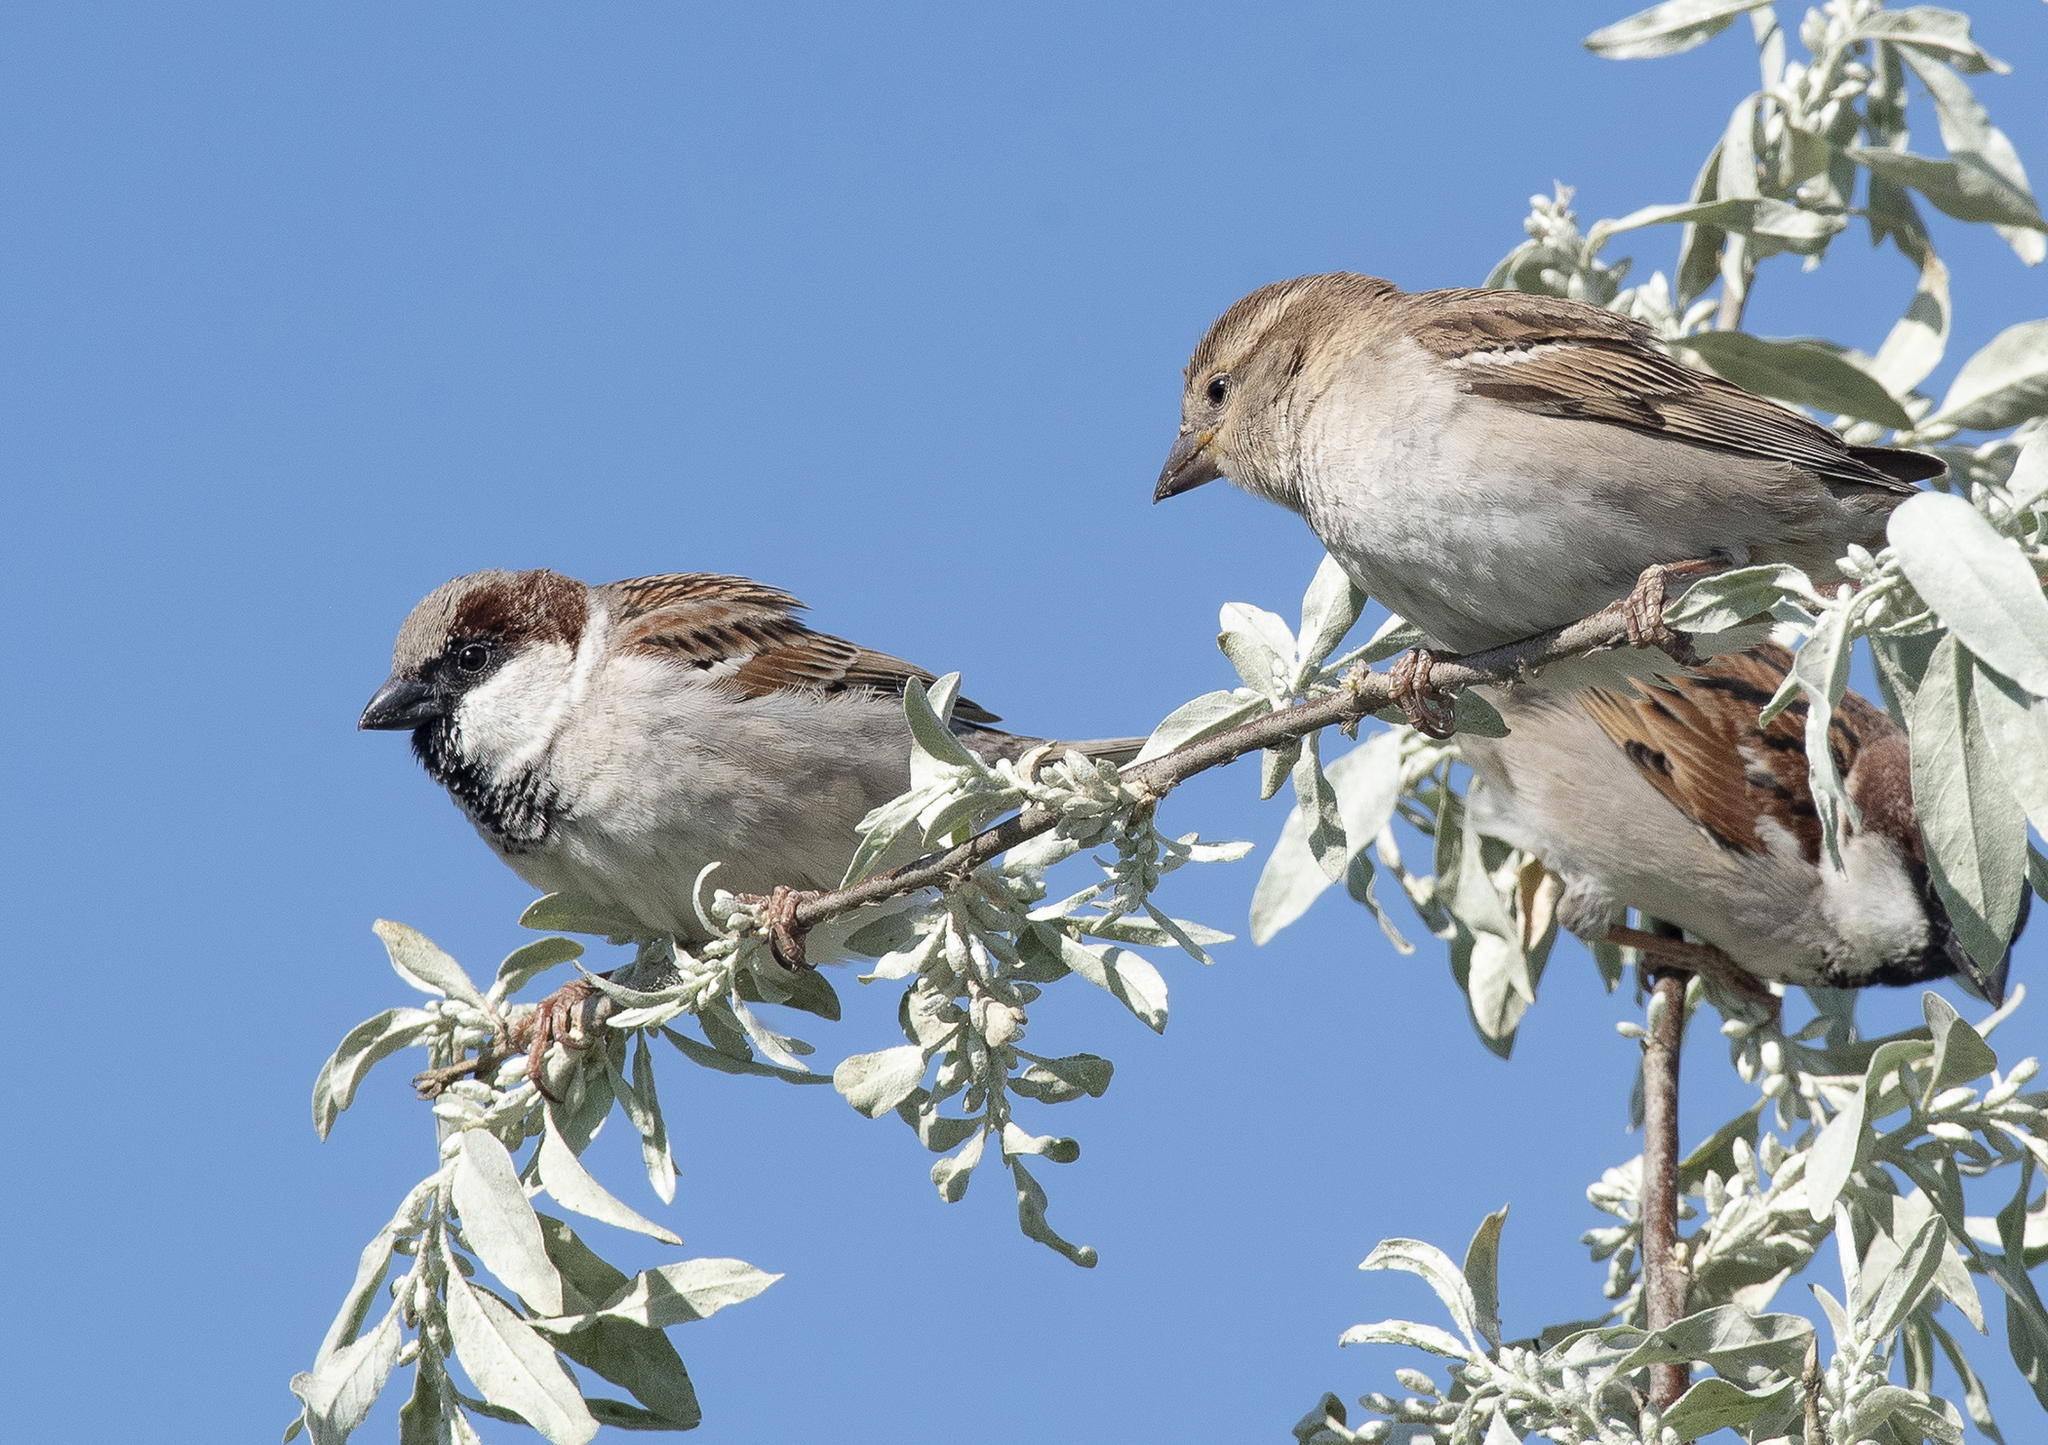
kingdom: Animalia
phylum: Chordata
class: Aves
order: Passeriformes
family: Passeridae
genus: Passer
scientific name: Passer domesticus
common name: House sparrow
